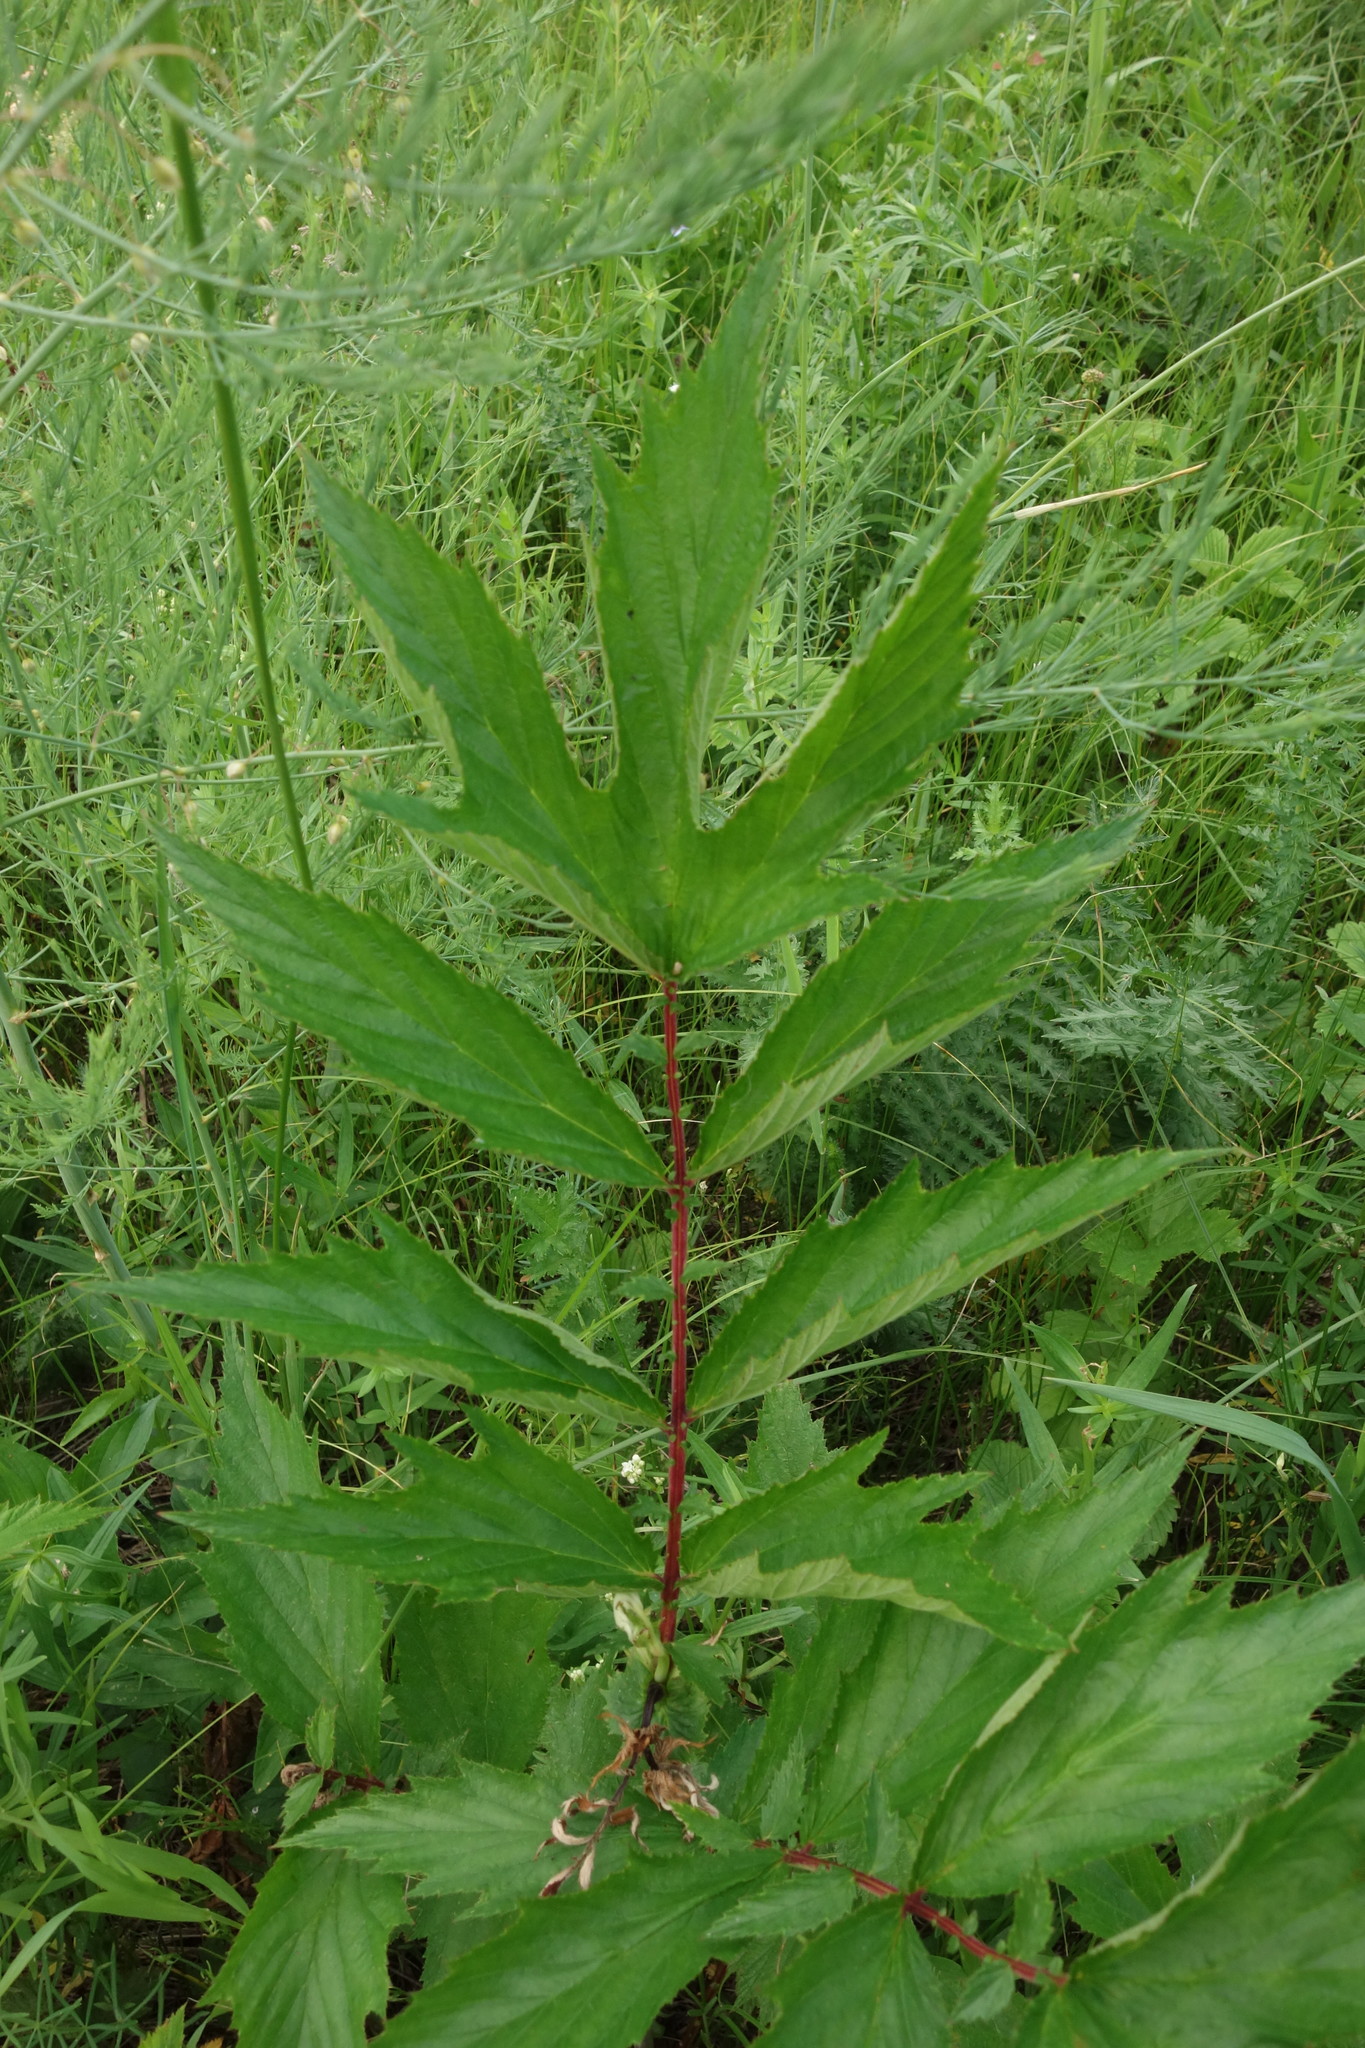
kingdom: Plantae
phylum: Tracheophyta
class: Magnoliopsida
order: Rosales
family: Rosaceae
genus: Filipendula
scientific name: Filipendula ulmaria
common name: Meadowsweet
